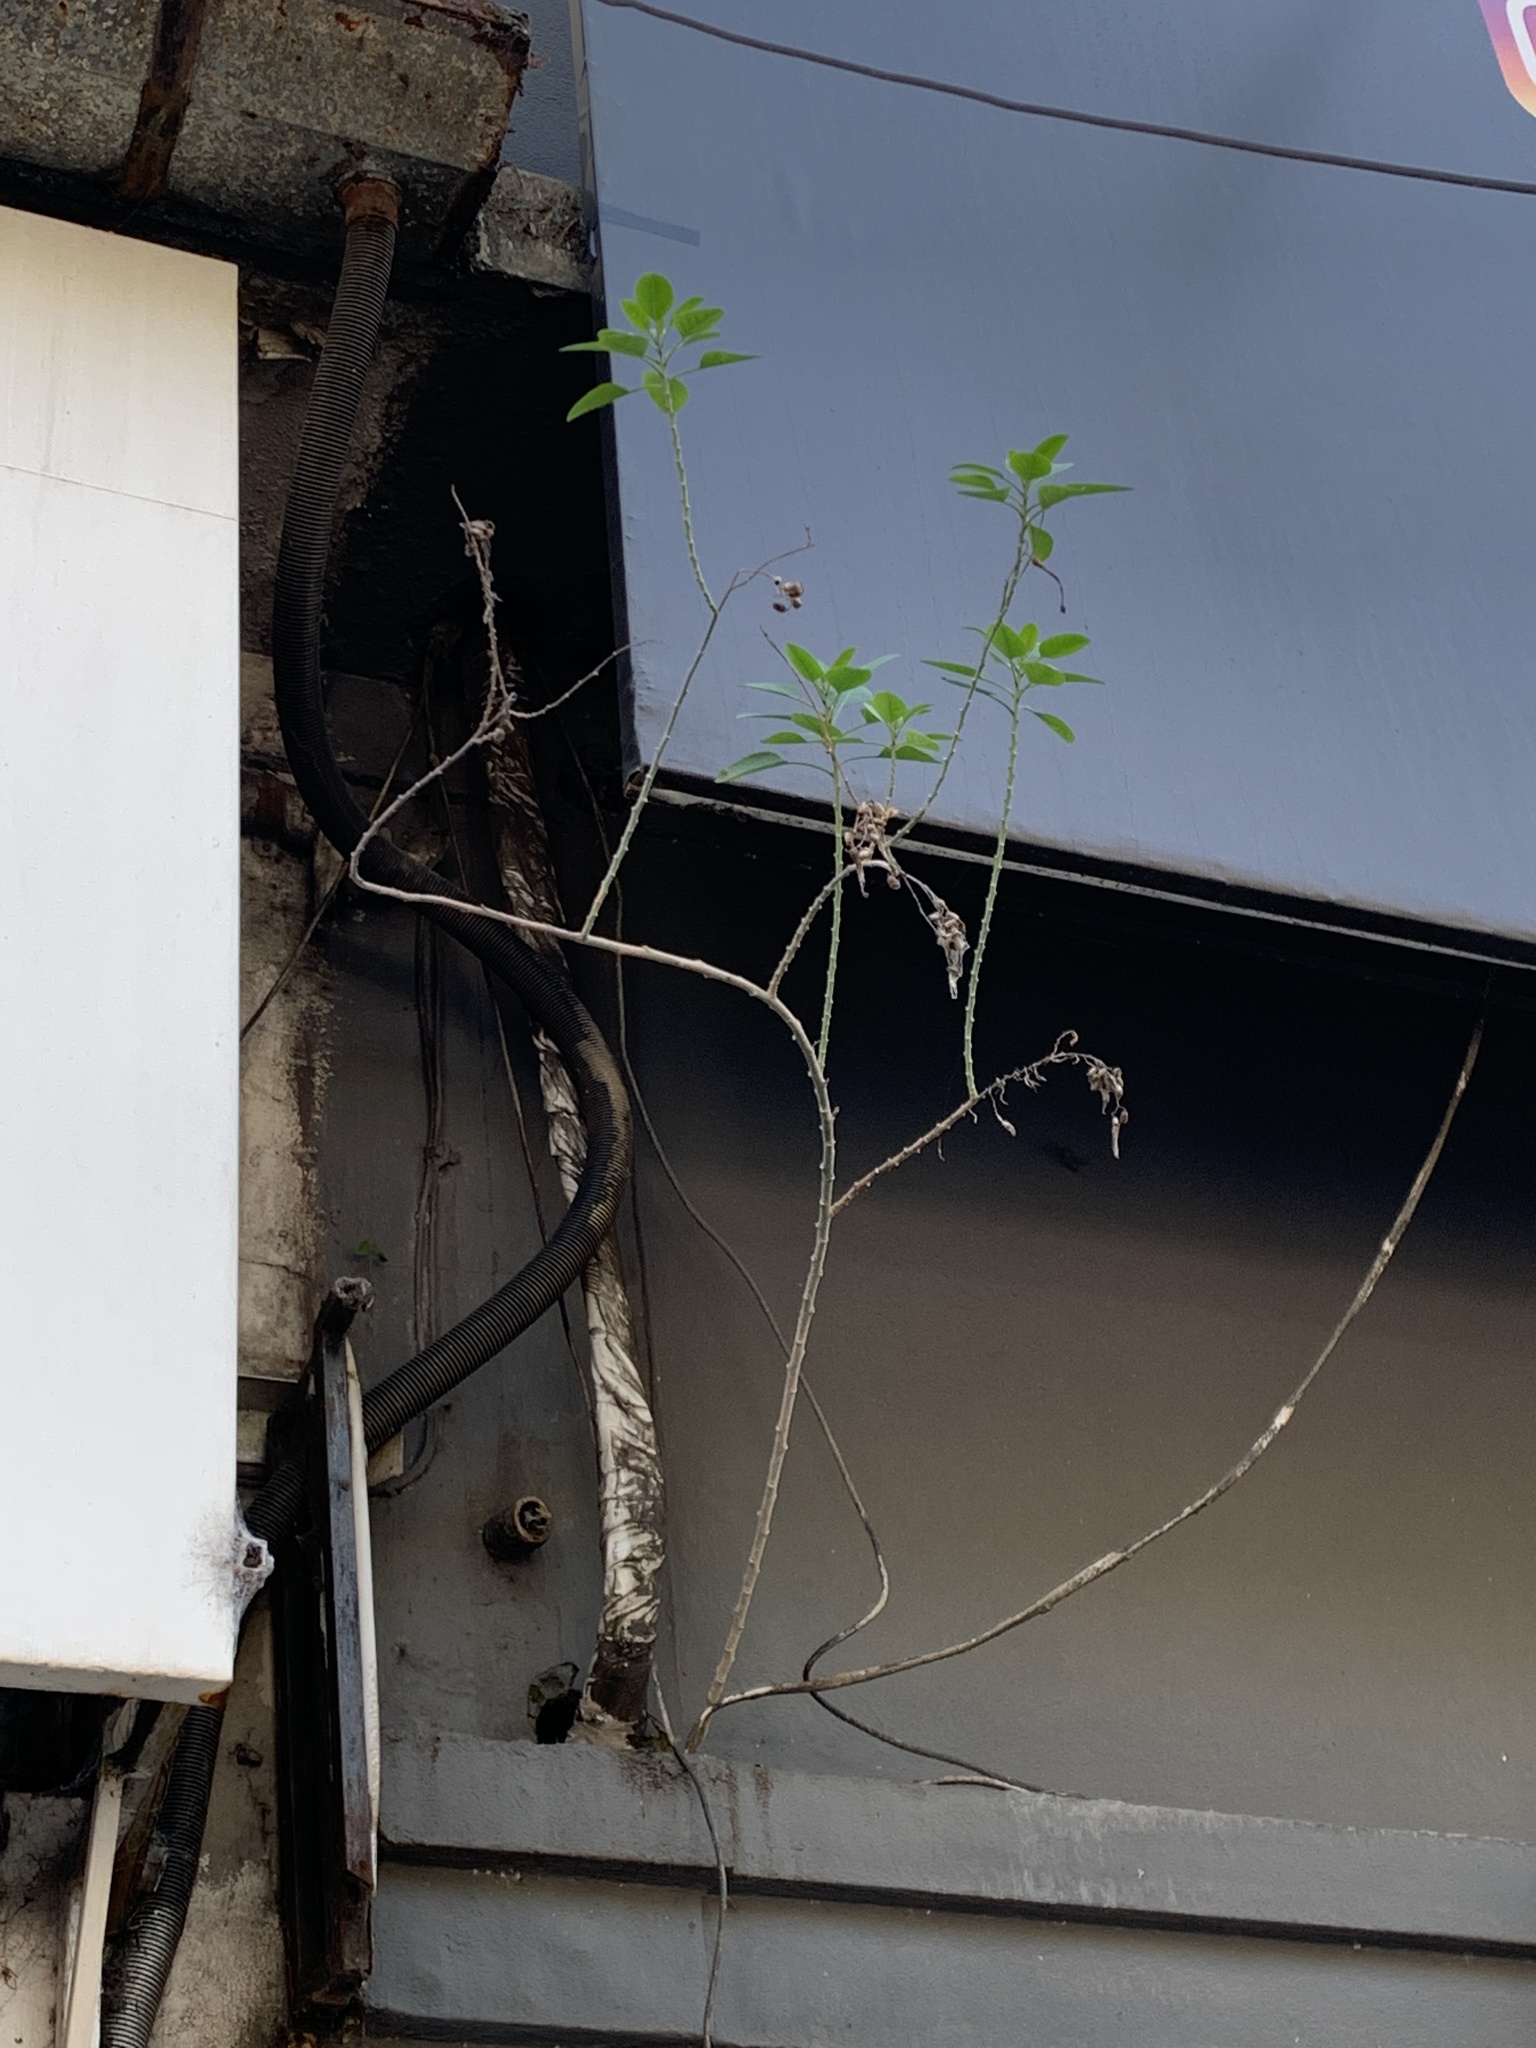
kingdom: Plantae
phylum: Tracheophyta
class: Magnoliopsida
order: Solanales
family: Solanaceae
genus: Nicotiana
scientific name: Nicotiana glauca
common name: Tree tobacco
